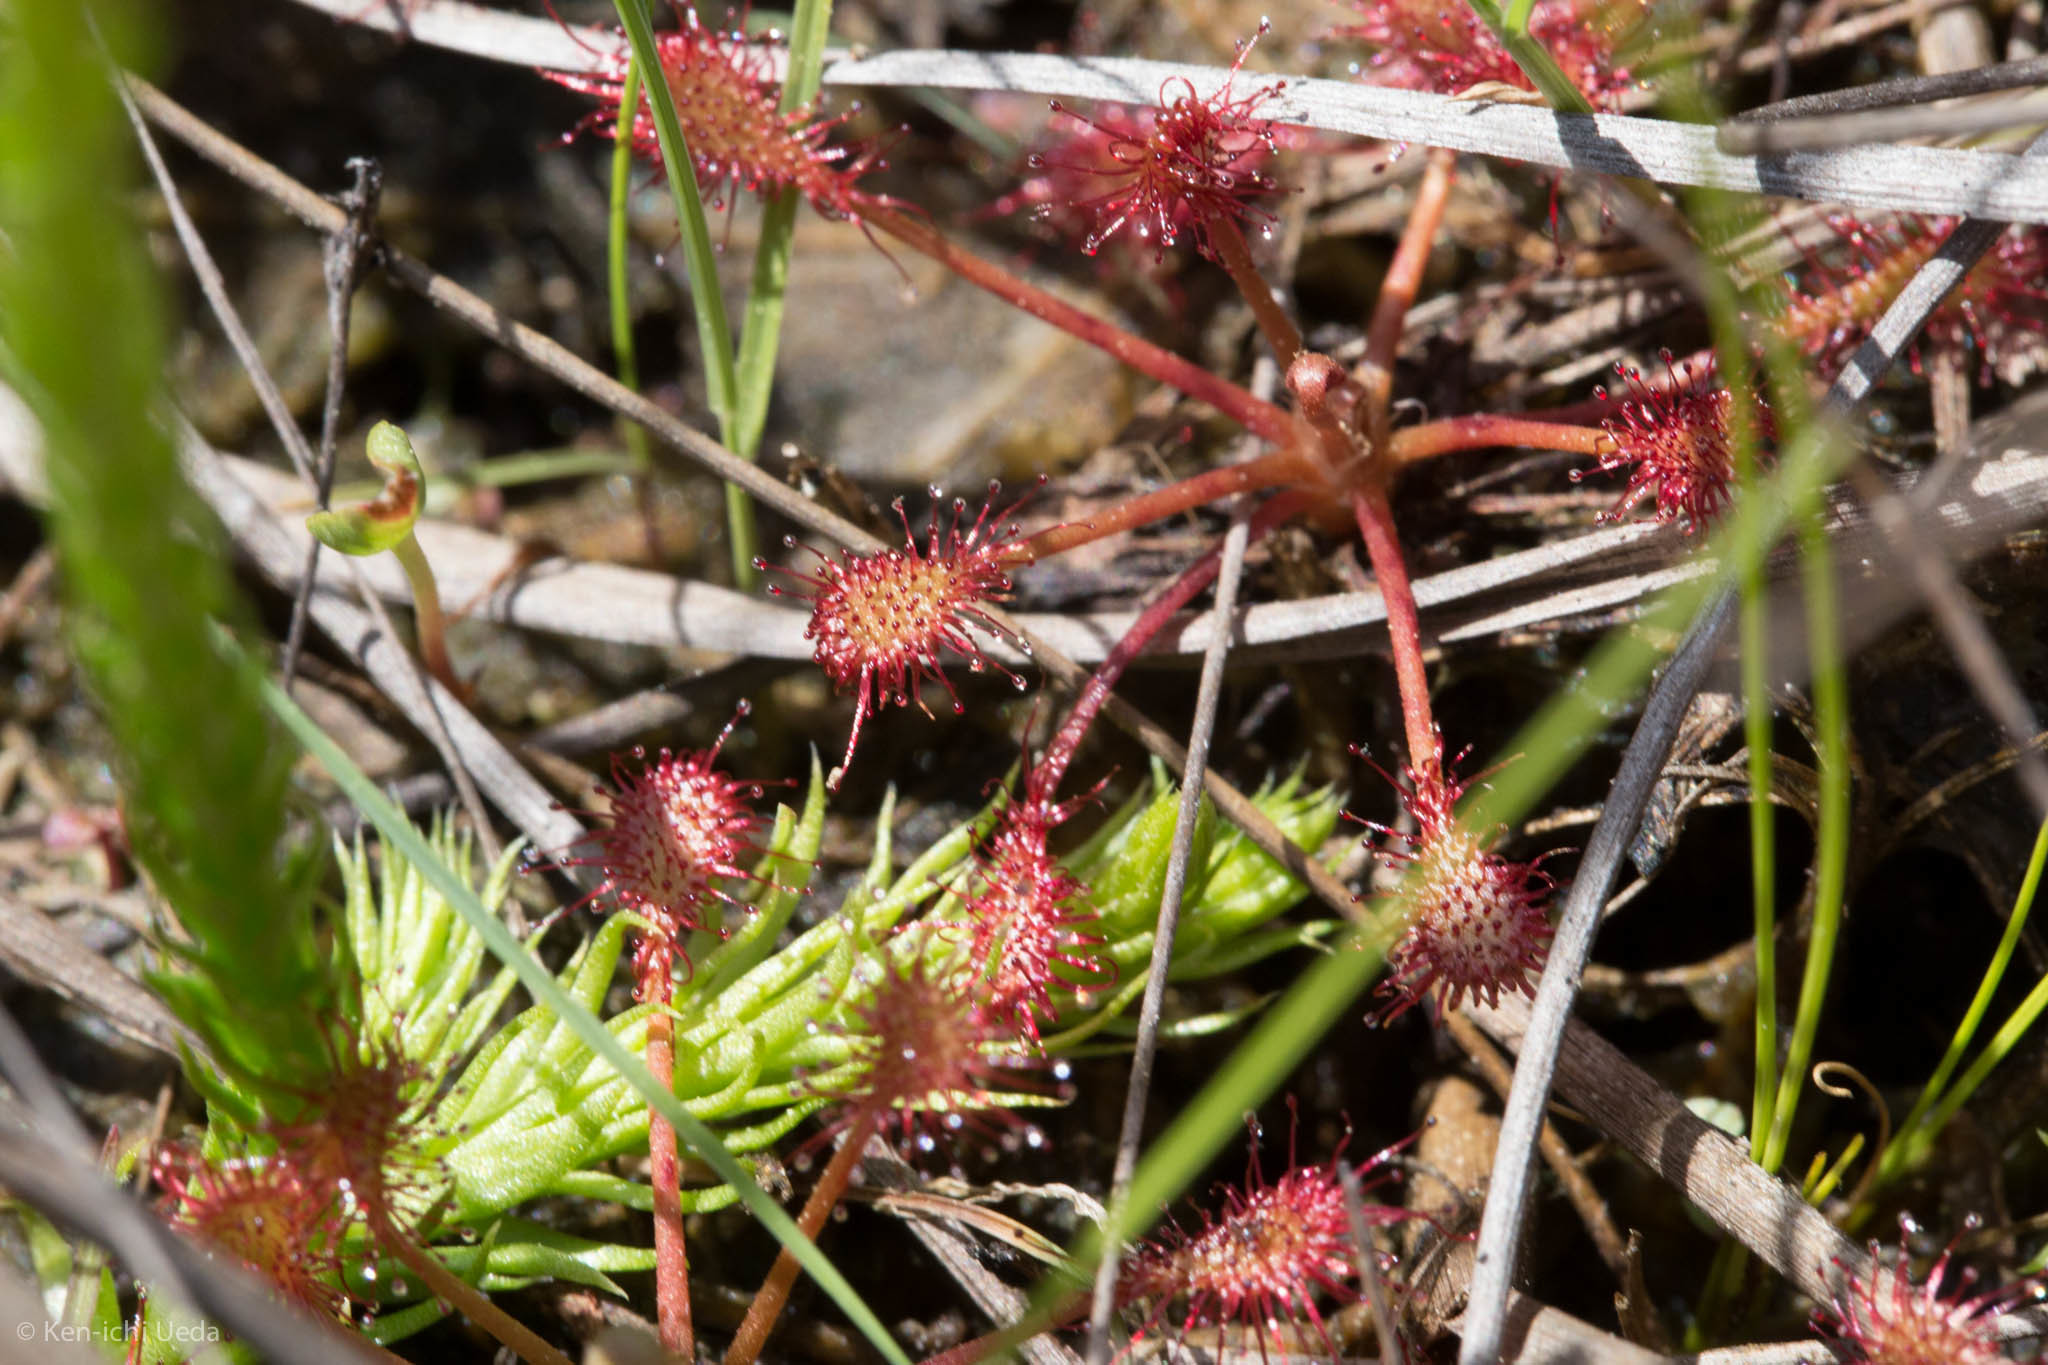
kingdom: Plantae
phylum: Tracheophyta
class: Magnoliopsida
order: Caryophyllales
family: Droseraceae
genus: Drosera
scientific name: Drosera intermedia
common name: Oblong-leaved sundew
